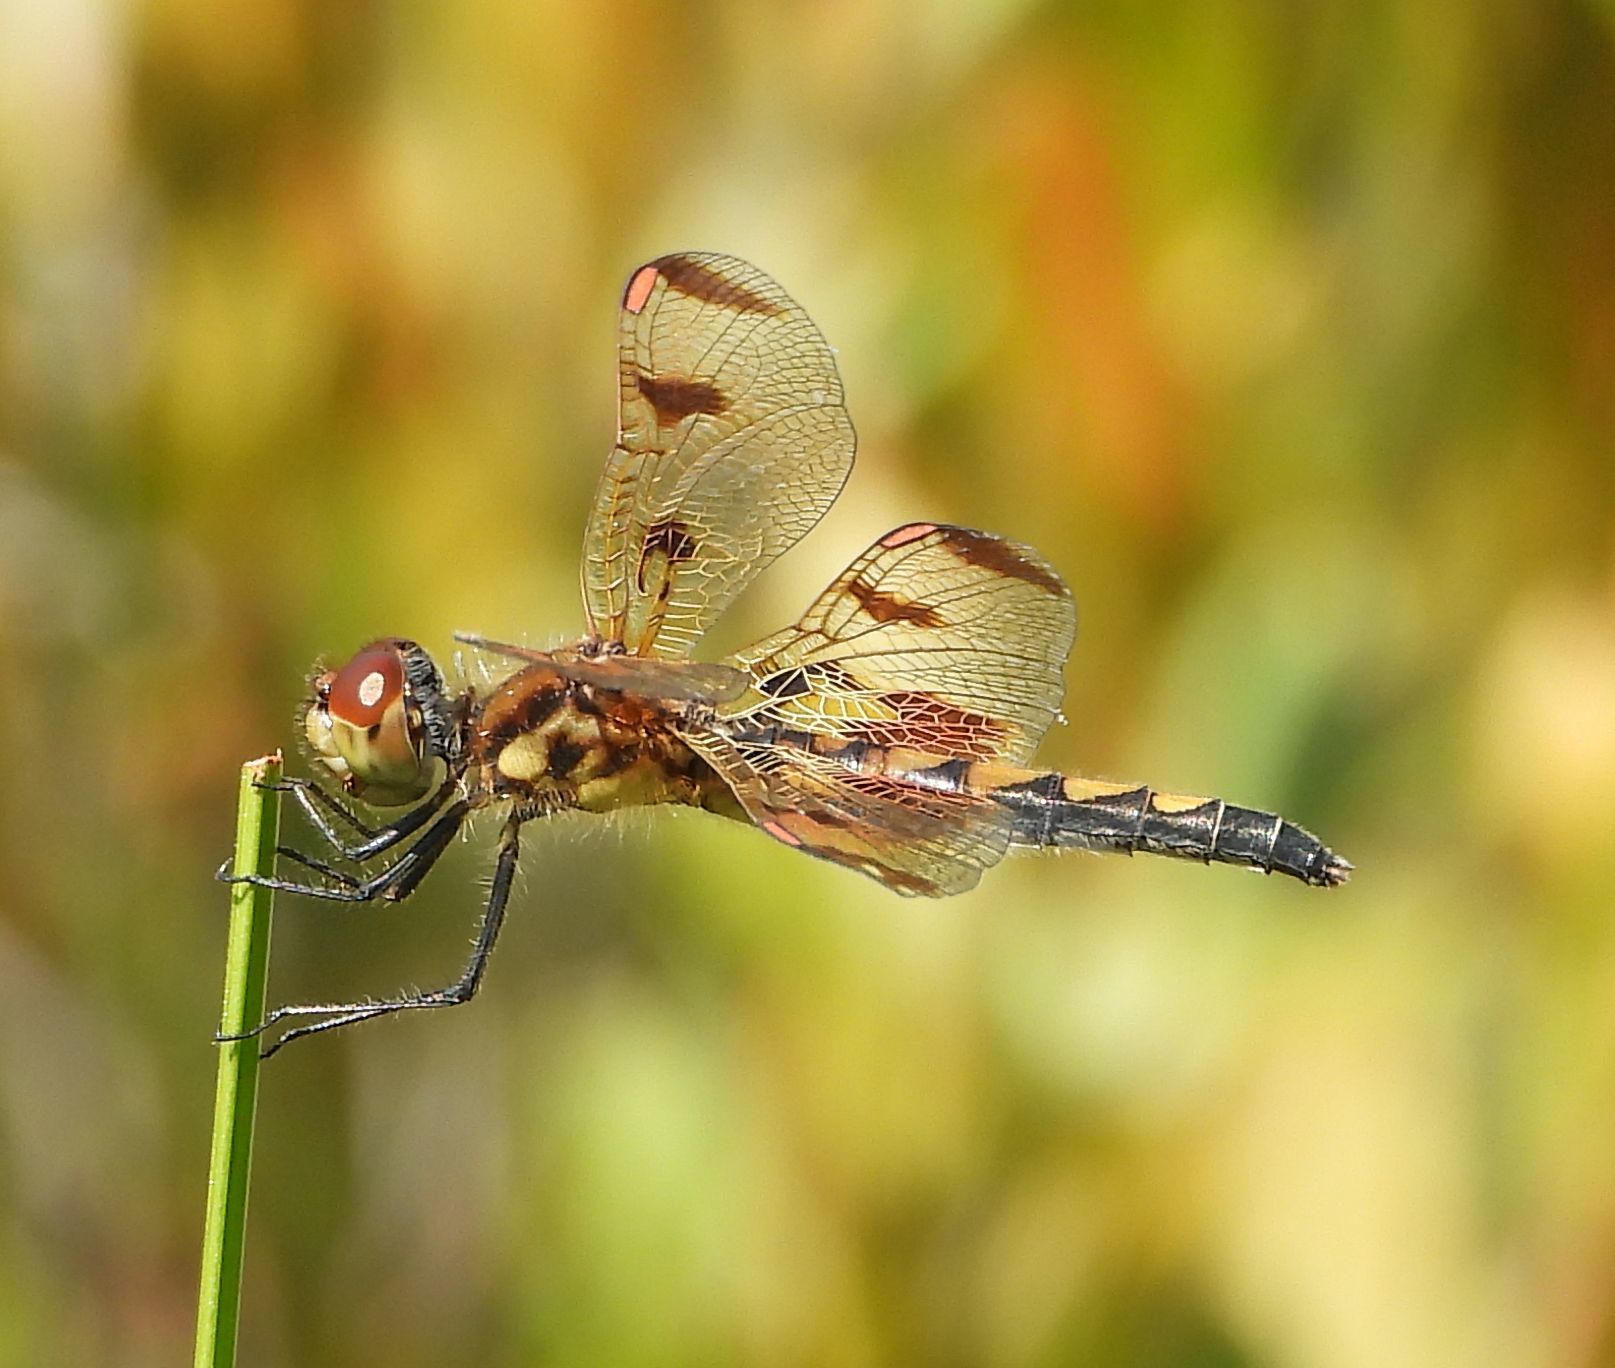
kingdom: Animalia
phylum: Arthropoda
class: Insecta
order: Odonata
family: Libellulidae
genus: Celithemis
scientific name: Celithemis elisa
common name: Calico pennant
